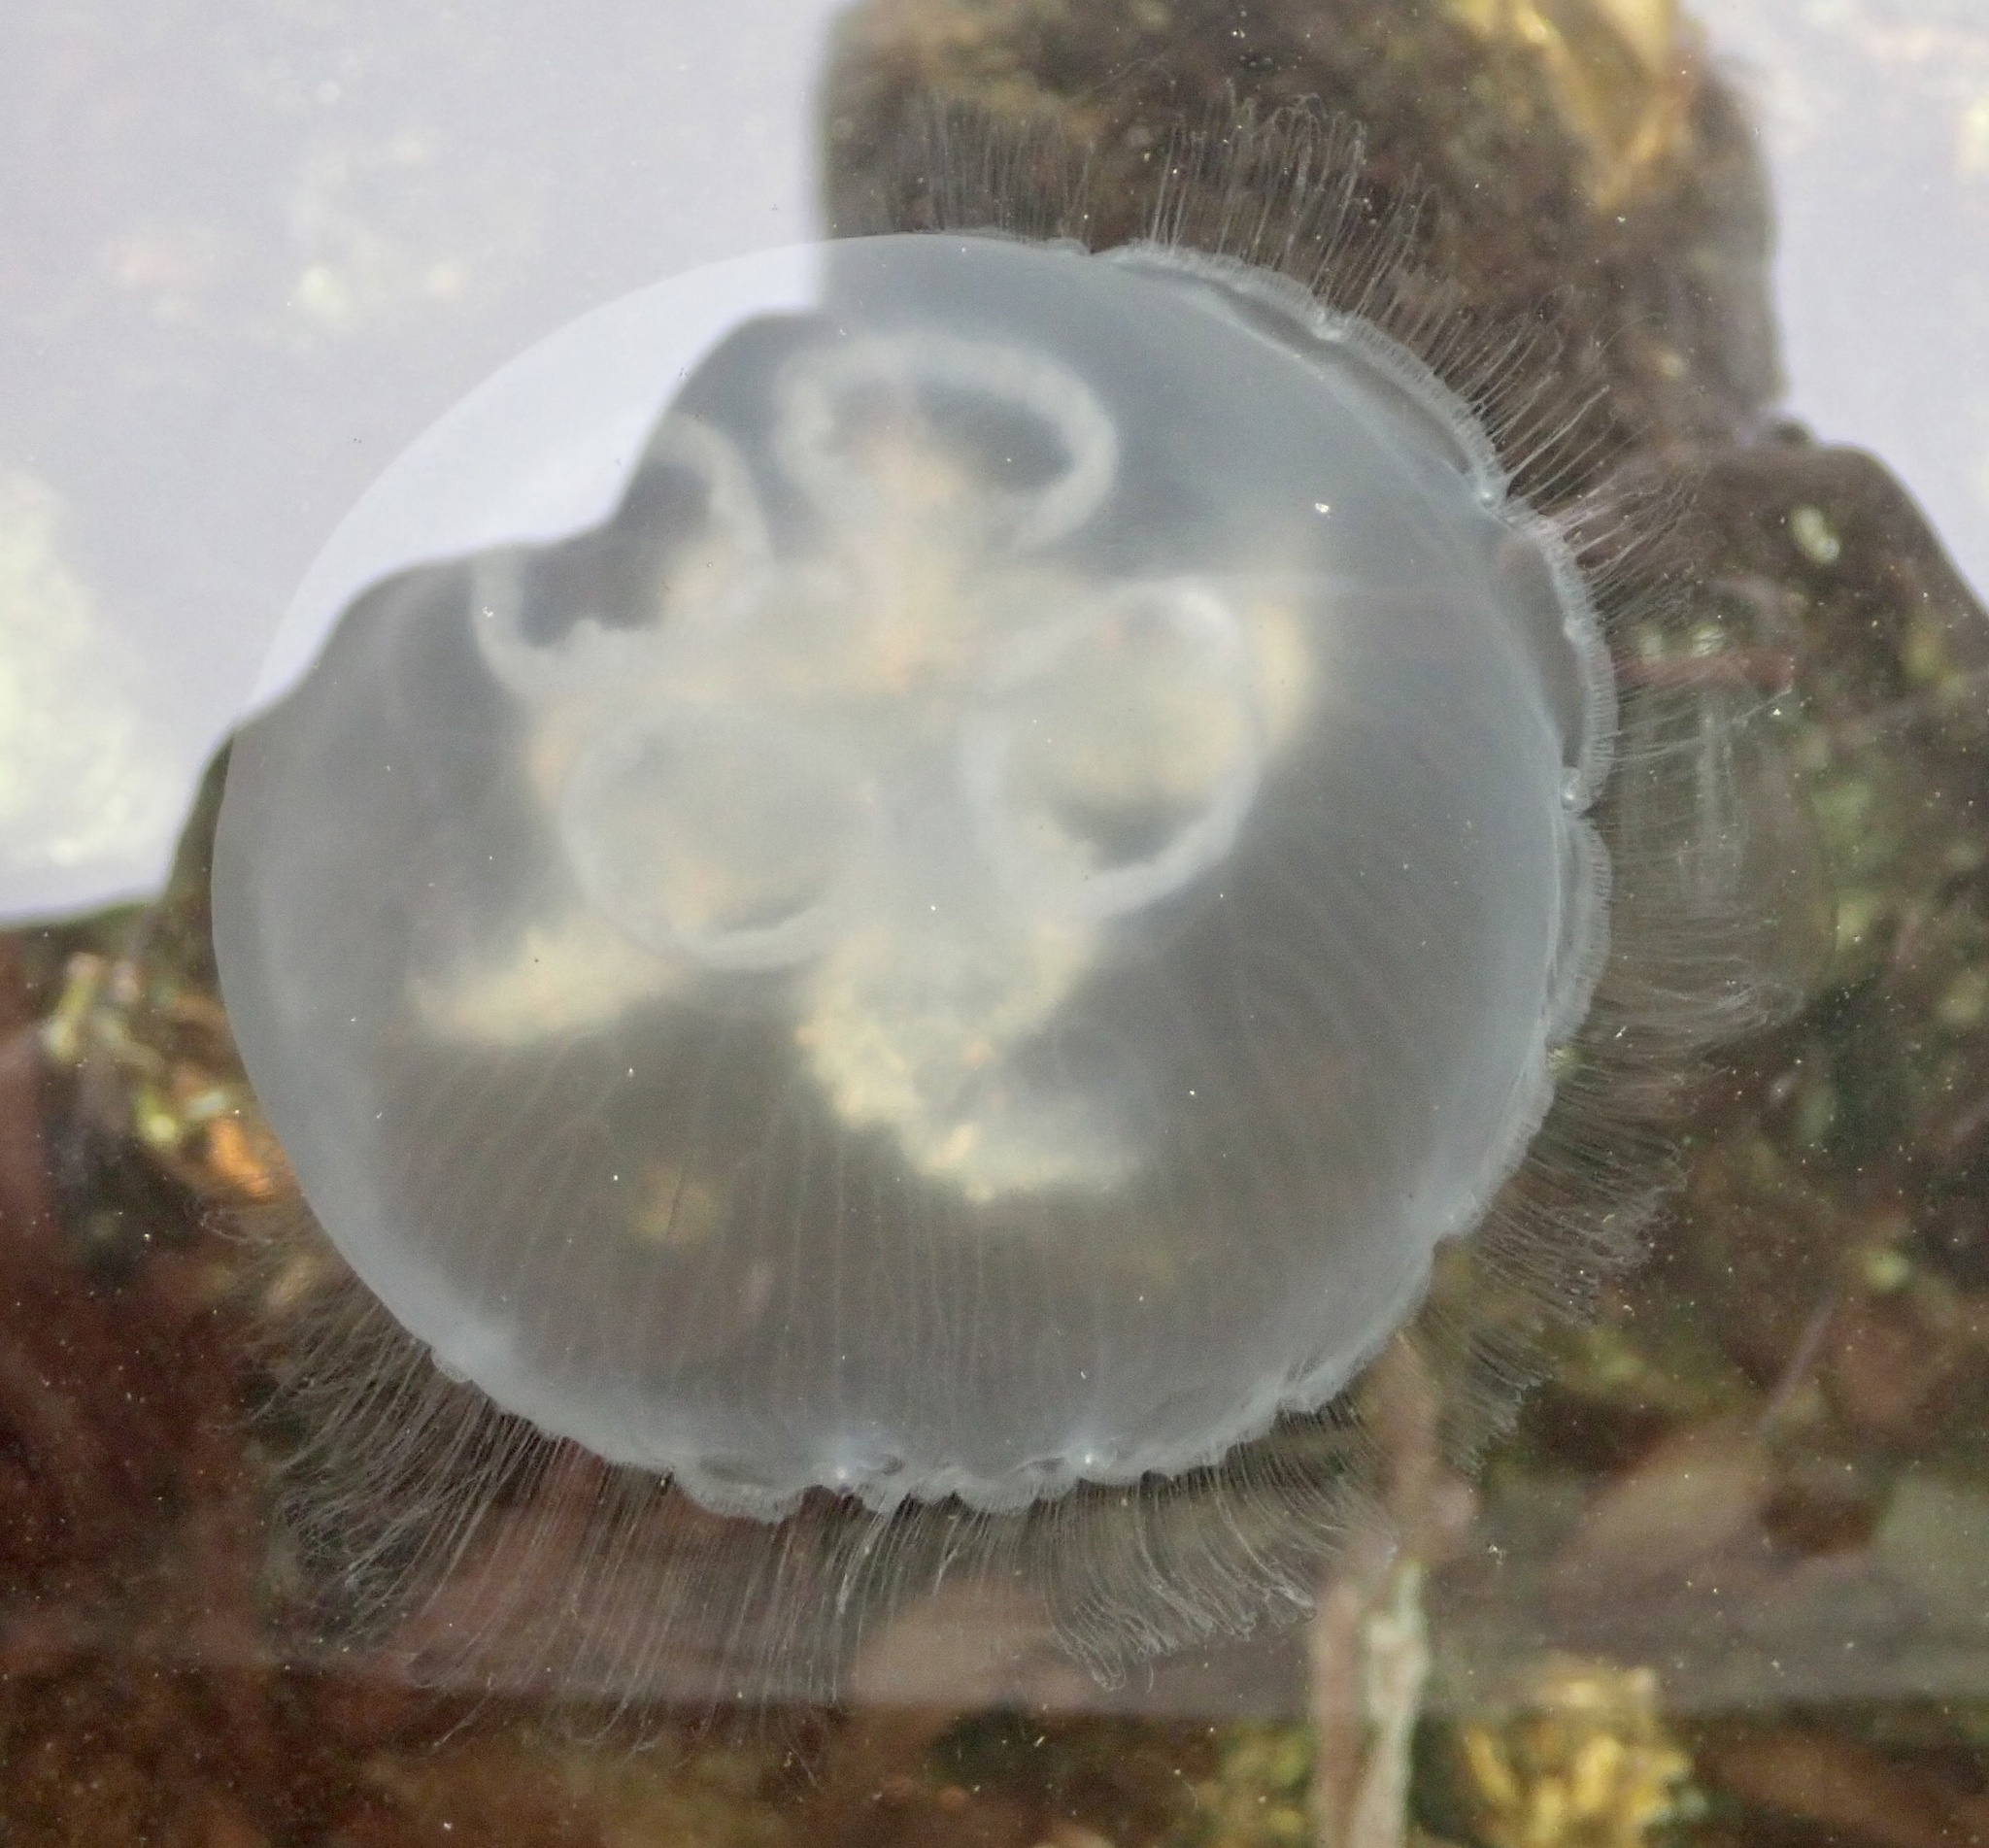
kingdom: Animalia
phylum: Cnidaria
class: Scyphozoa
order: Semaeostomeae
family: Ulmaridae
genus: Aurelia
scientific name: Aurelia aurita
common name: Moon jellyfish
